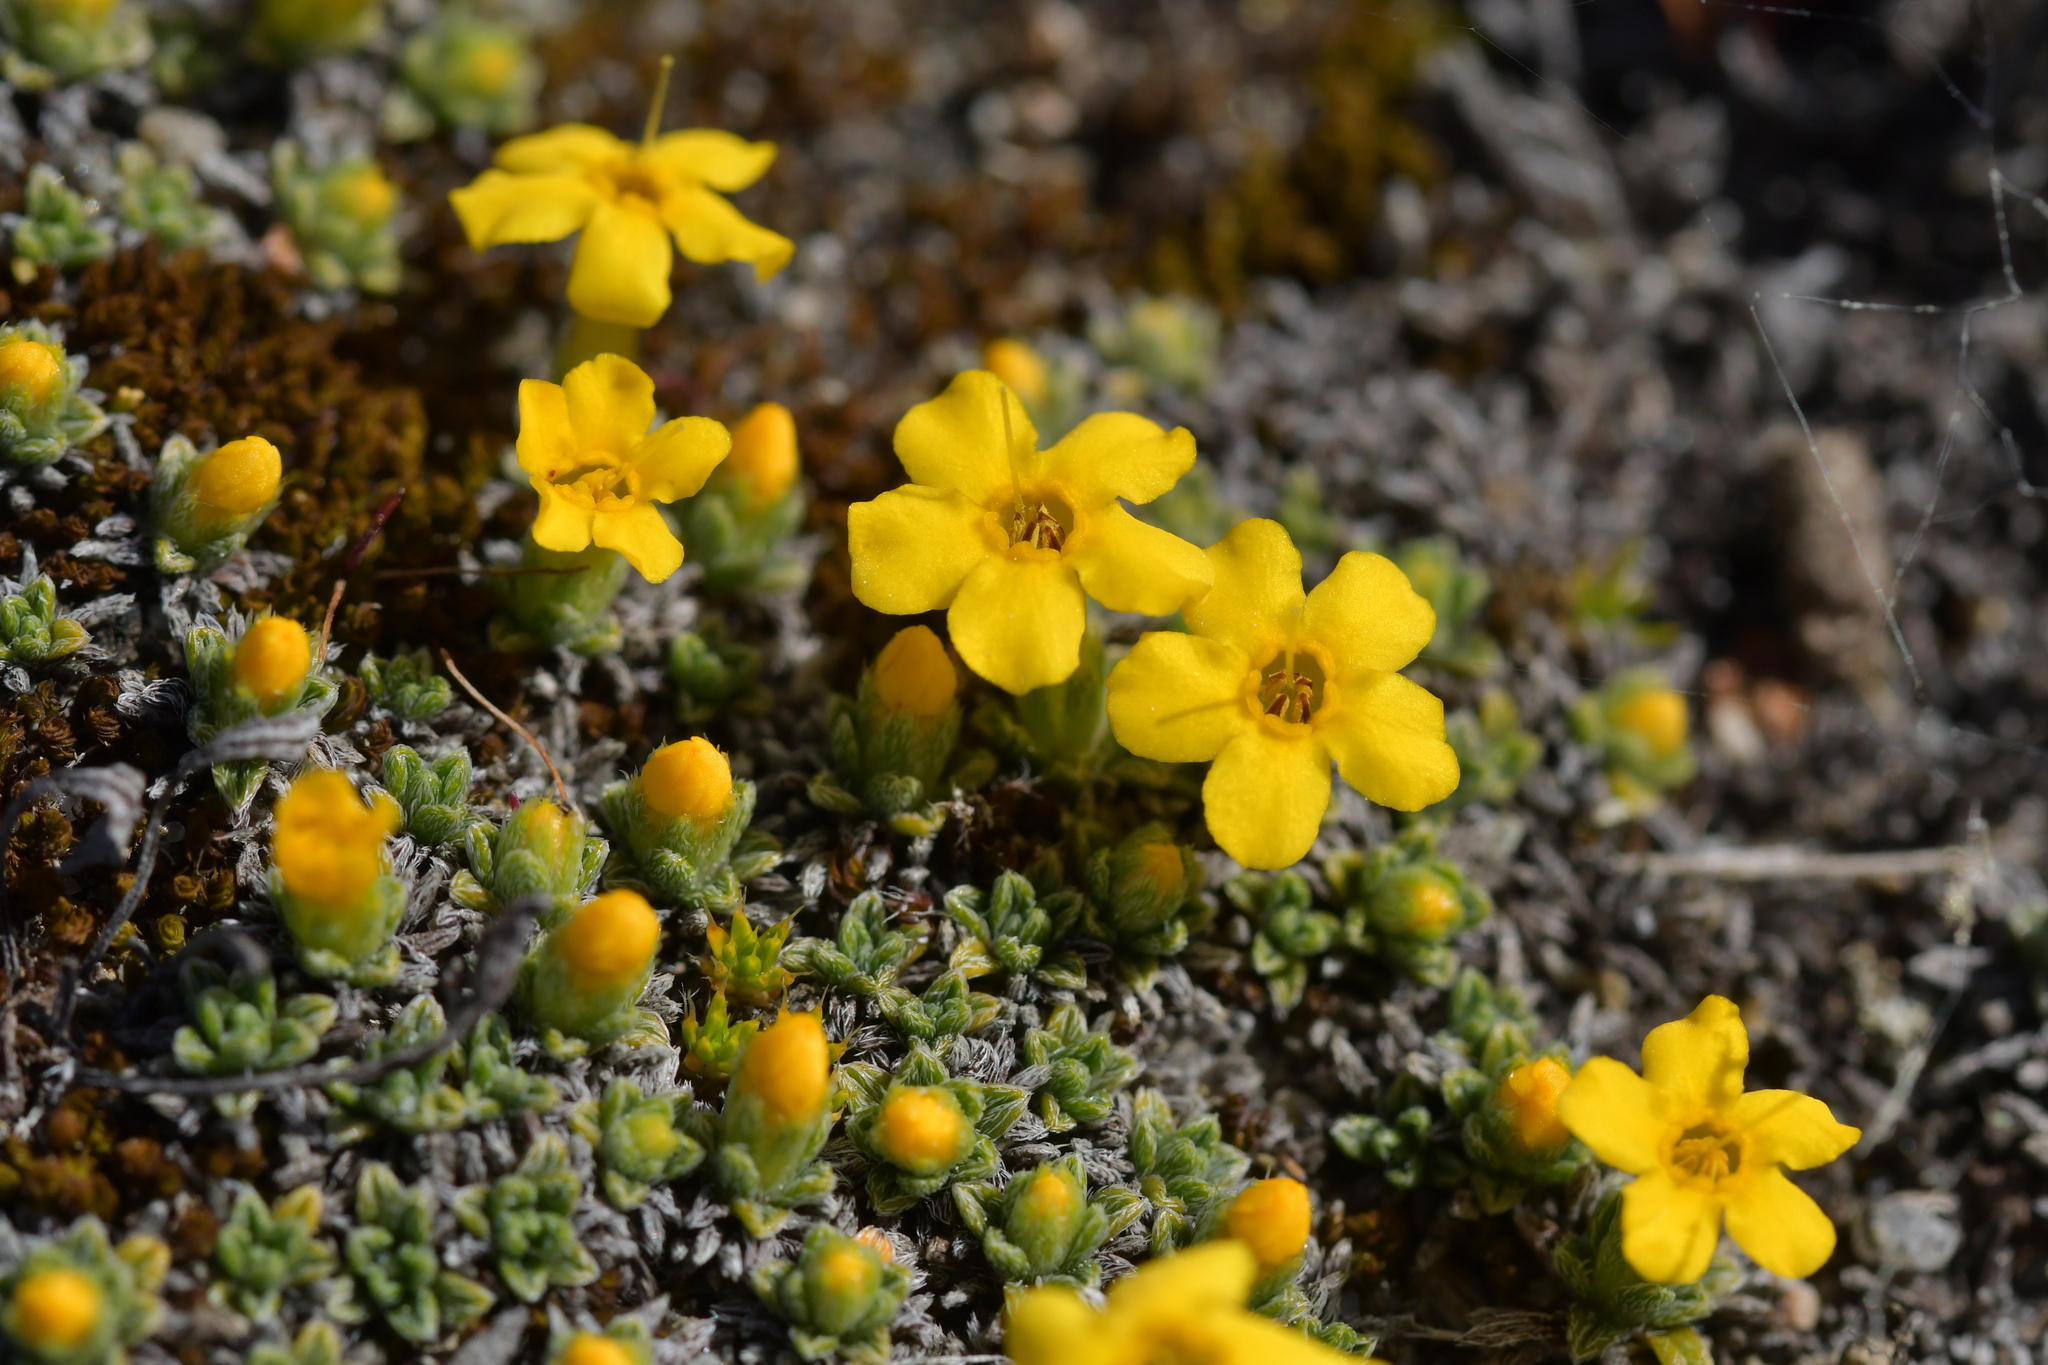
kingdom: Plantae
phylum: Tracheophyta
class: Magnoliopsida
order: Boraginales
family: Boraginaceae
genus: Myosotis
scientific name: Myosotis uniflora
